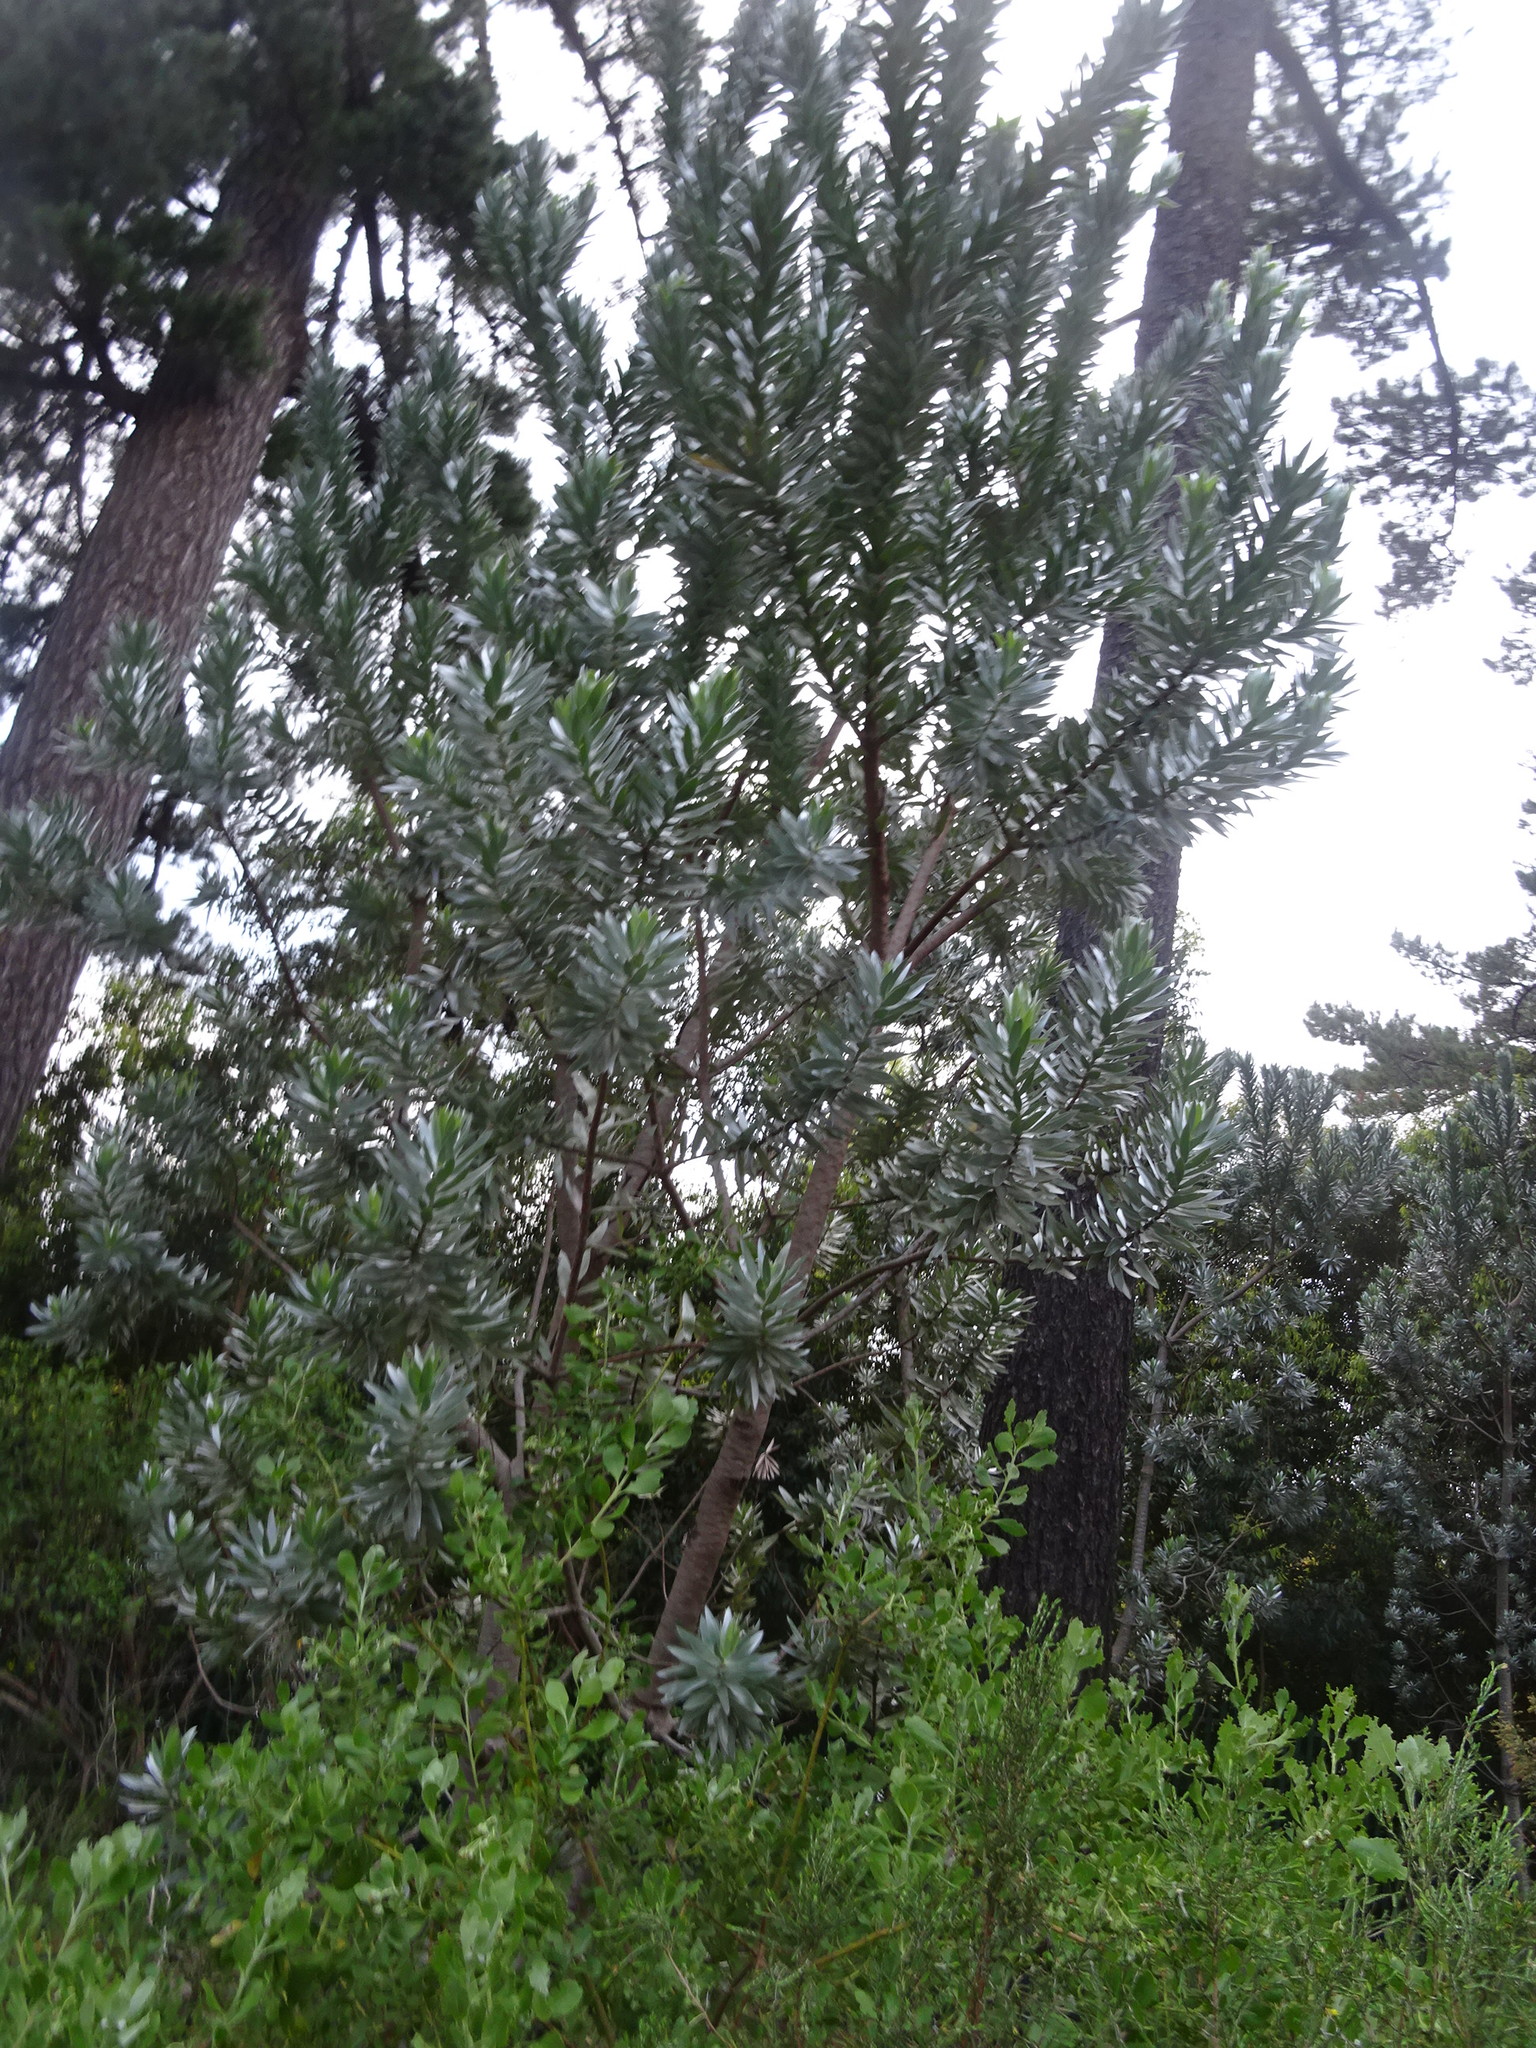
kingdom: Plantae
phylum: Tracheophyta
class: Magnoliopsida
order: Proteales
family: Proteaceae
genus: Leucadendron
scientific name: Leucadendron argenteum
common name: Cape silver tree
